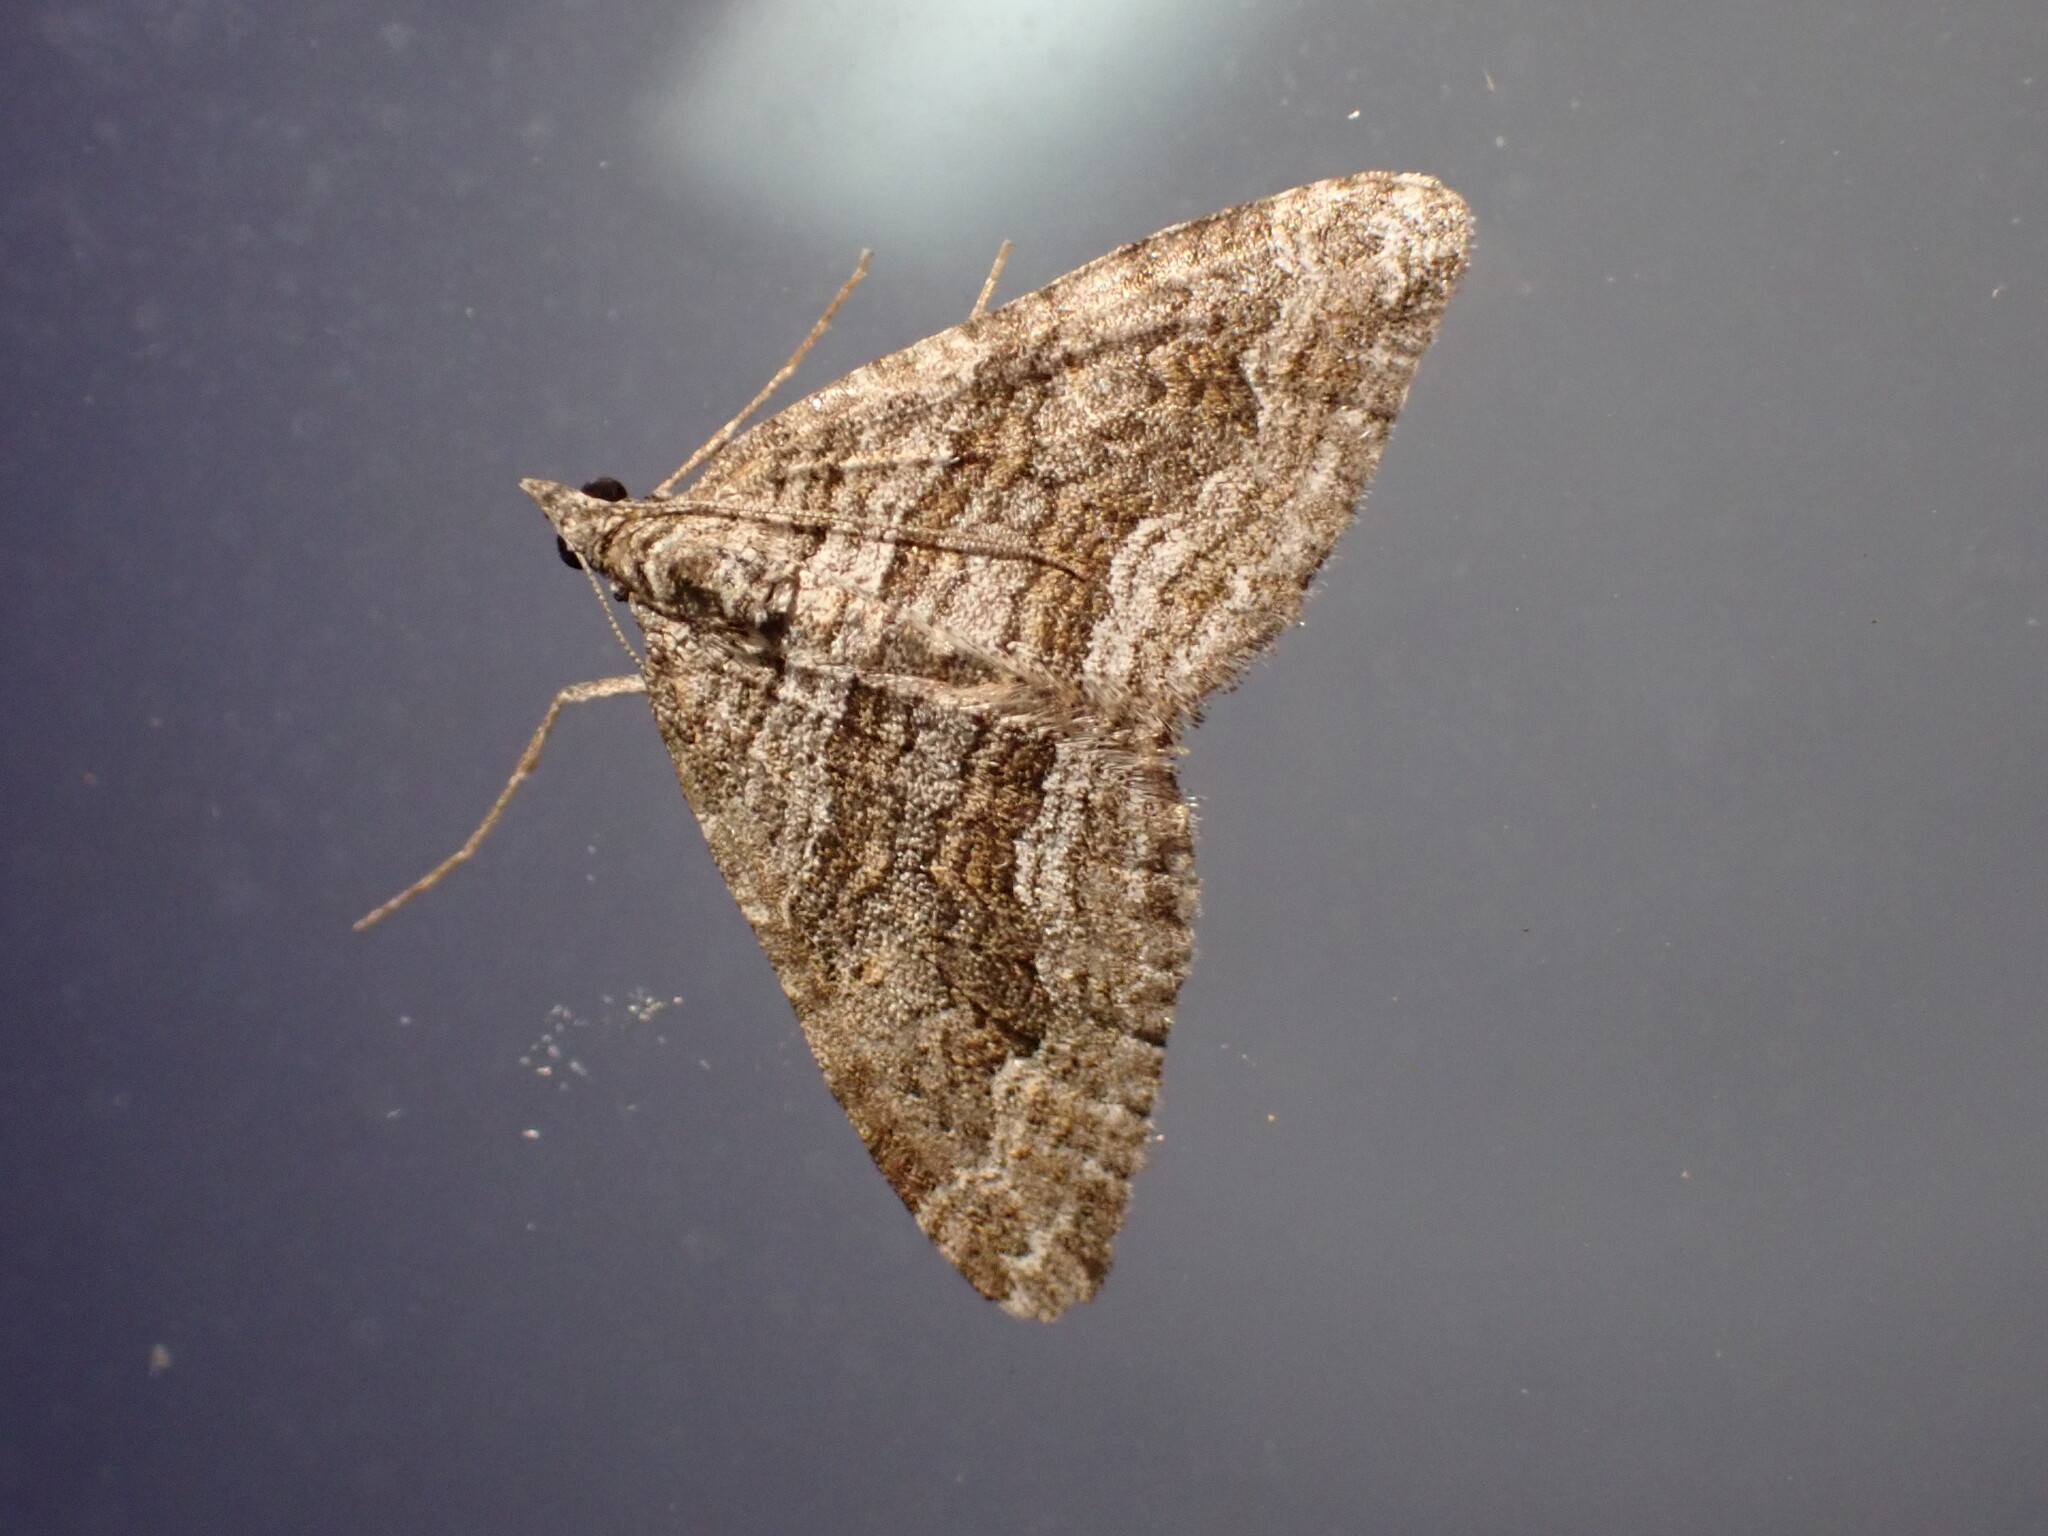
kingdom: Animalia
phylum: Arthropoda
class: Insecta
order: Lepidoptera
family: Geometridae
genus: Perizoma
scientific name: Perizoma custodiata
